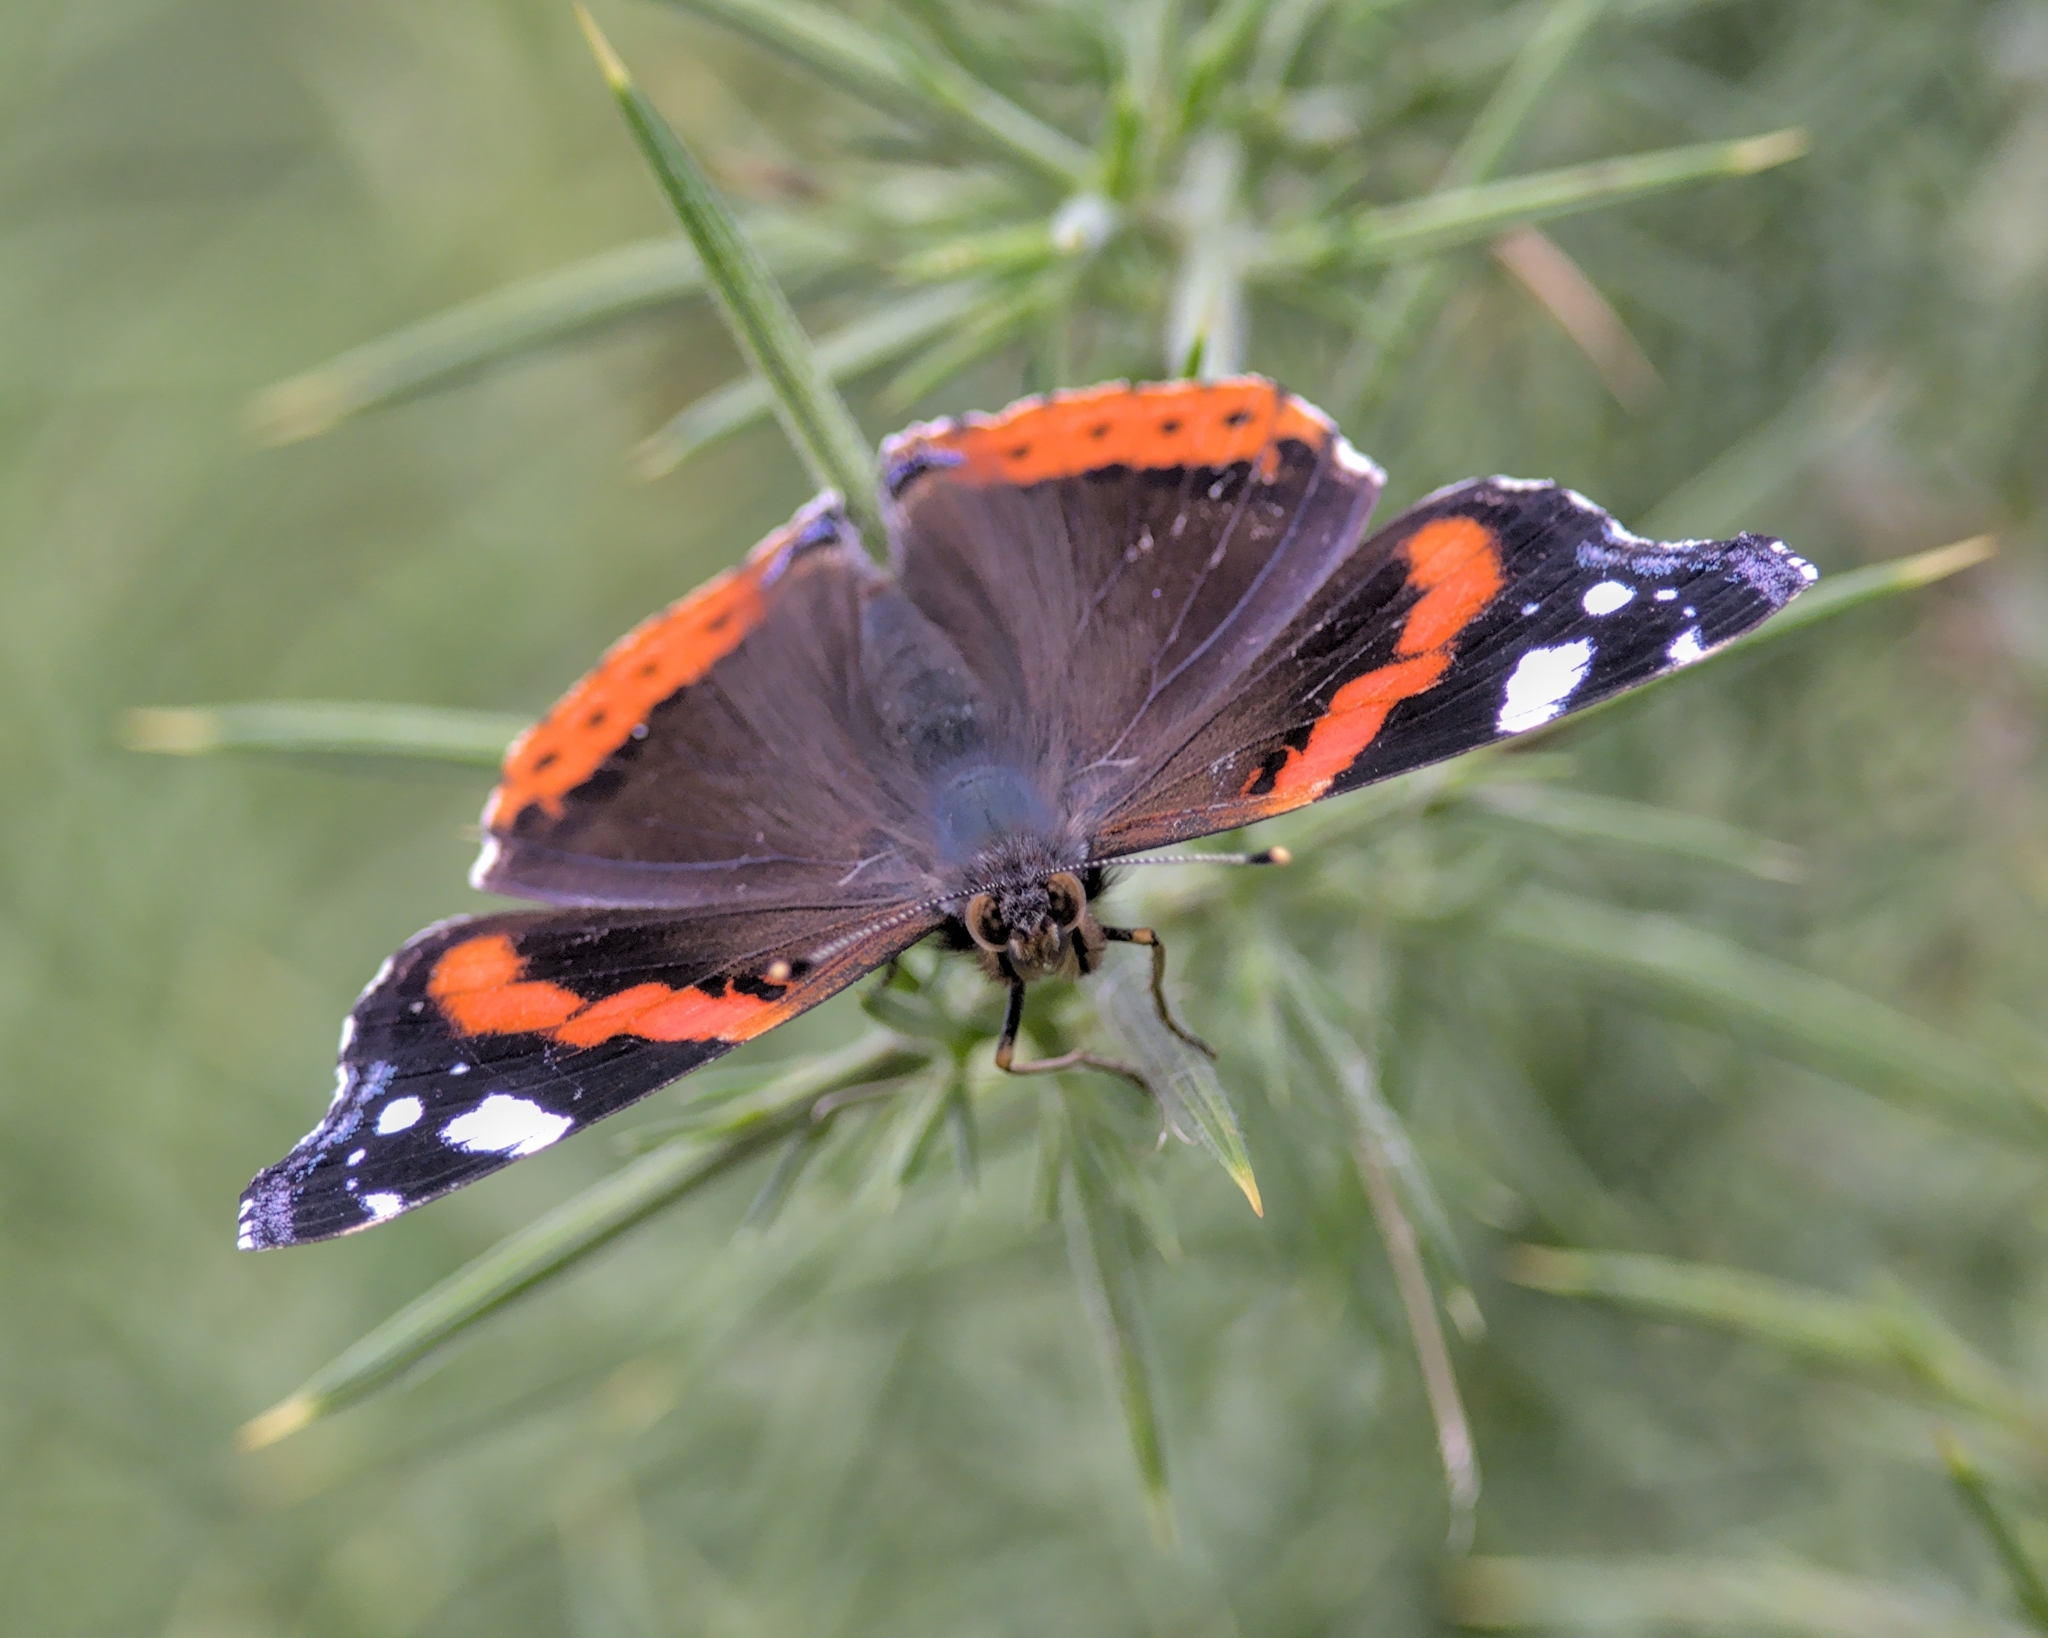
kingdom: Animalia
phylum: Arthropoda
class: Insecta
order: Lepidoptera
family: Nymphalidae
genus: Vanessa
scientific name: Vanessa atalanta
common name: Red admiral
